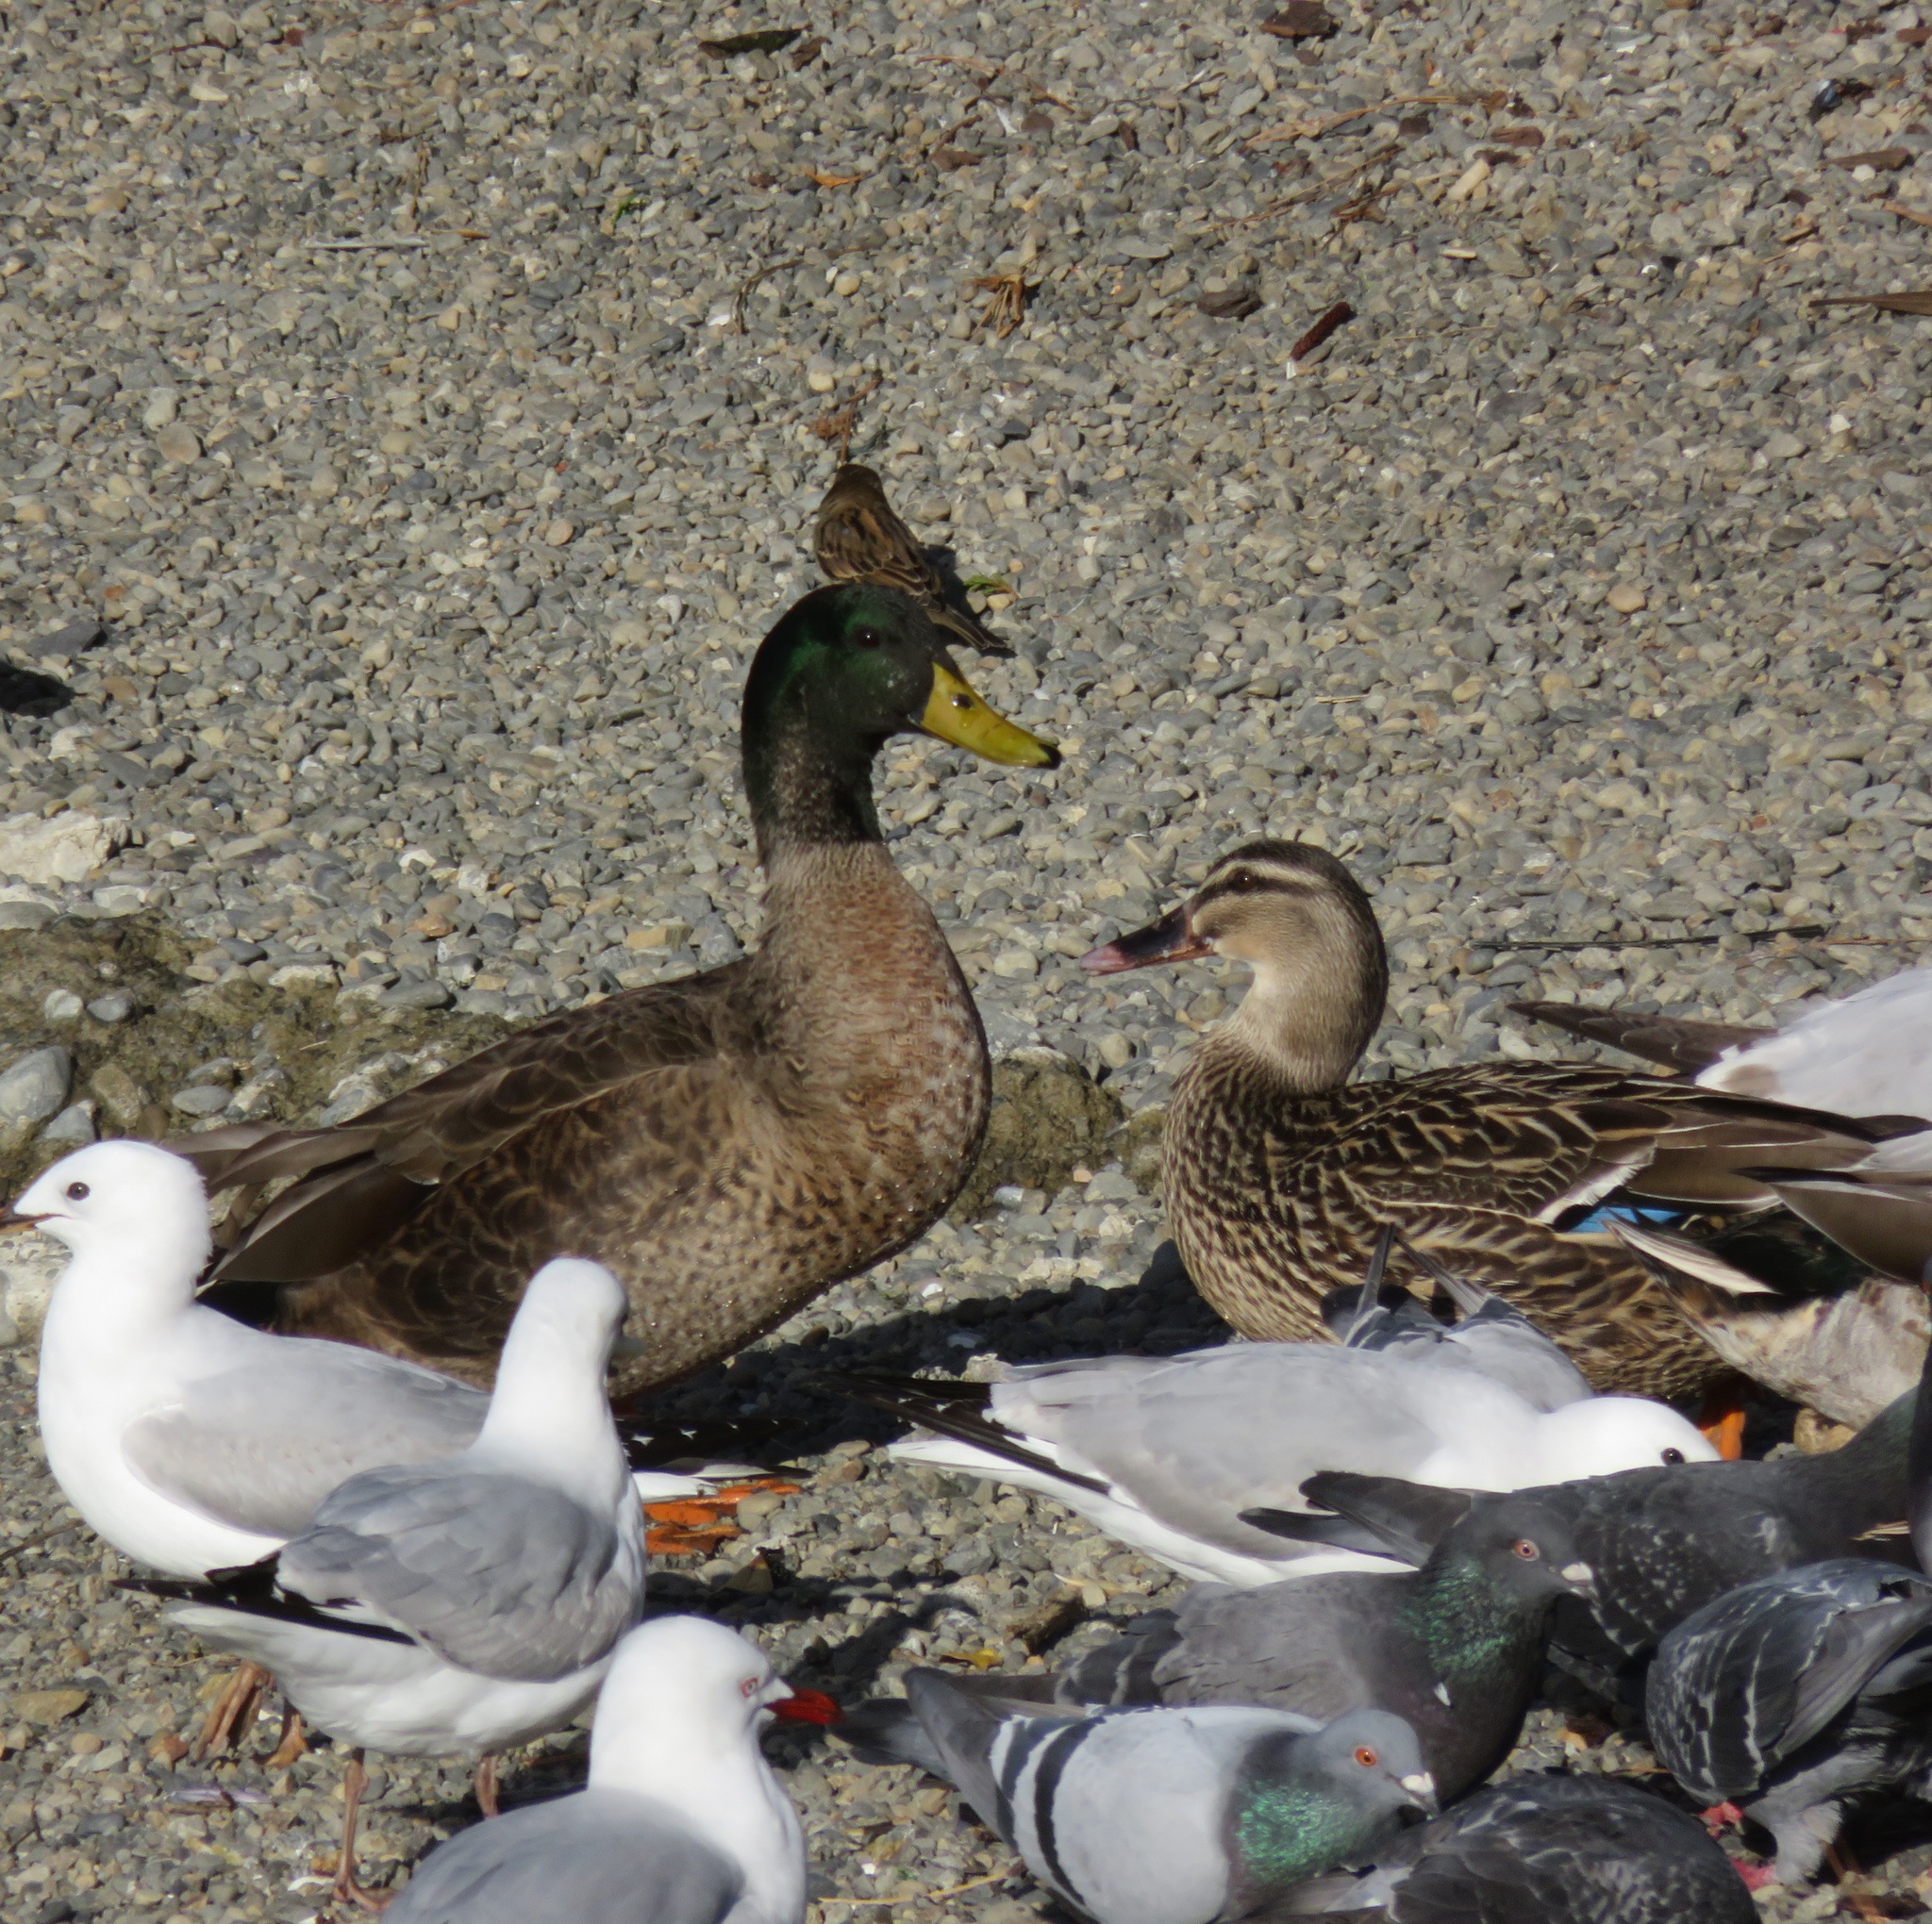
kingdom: Animalia
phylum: Chordata
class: Aves
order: Anseriformes
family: Anatidae
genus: Anas
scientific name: Anas
